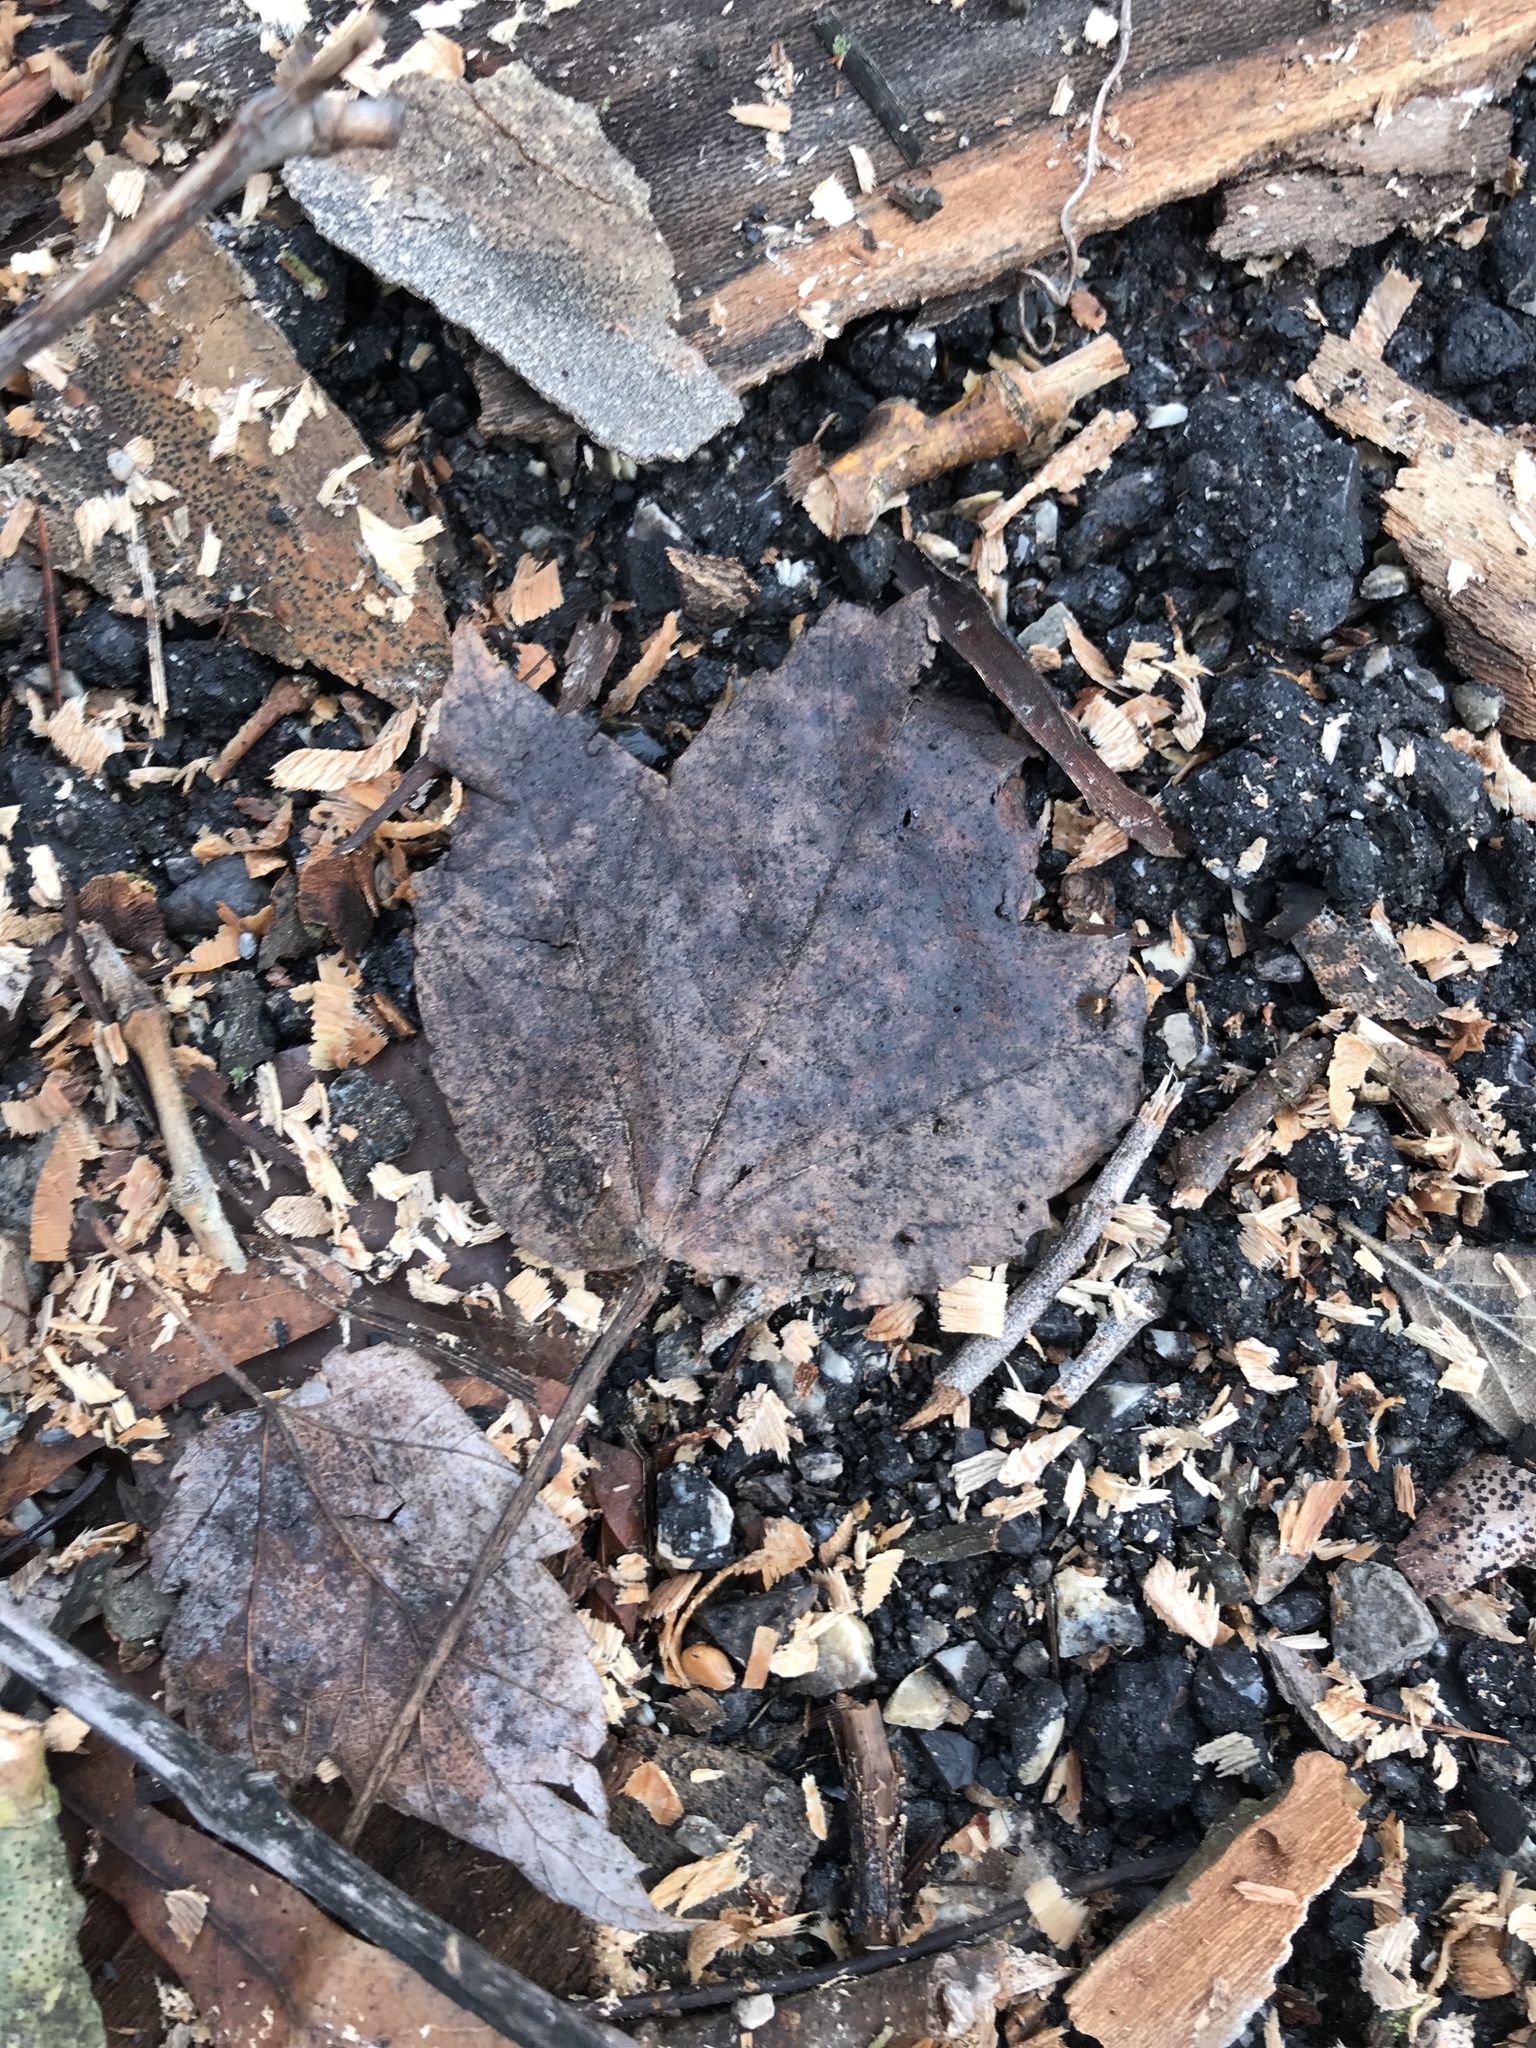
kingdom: Plantae
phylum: Tracheophyta
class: Magnoliopsida
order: Sapindales
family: Sapindaceae
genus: Acer
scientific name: Acer rubrum
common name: Red maple
